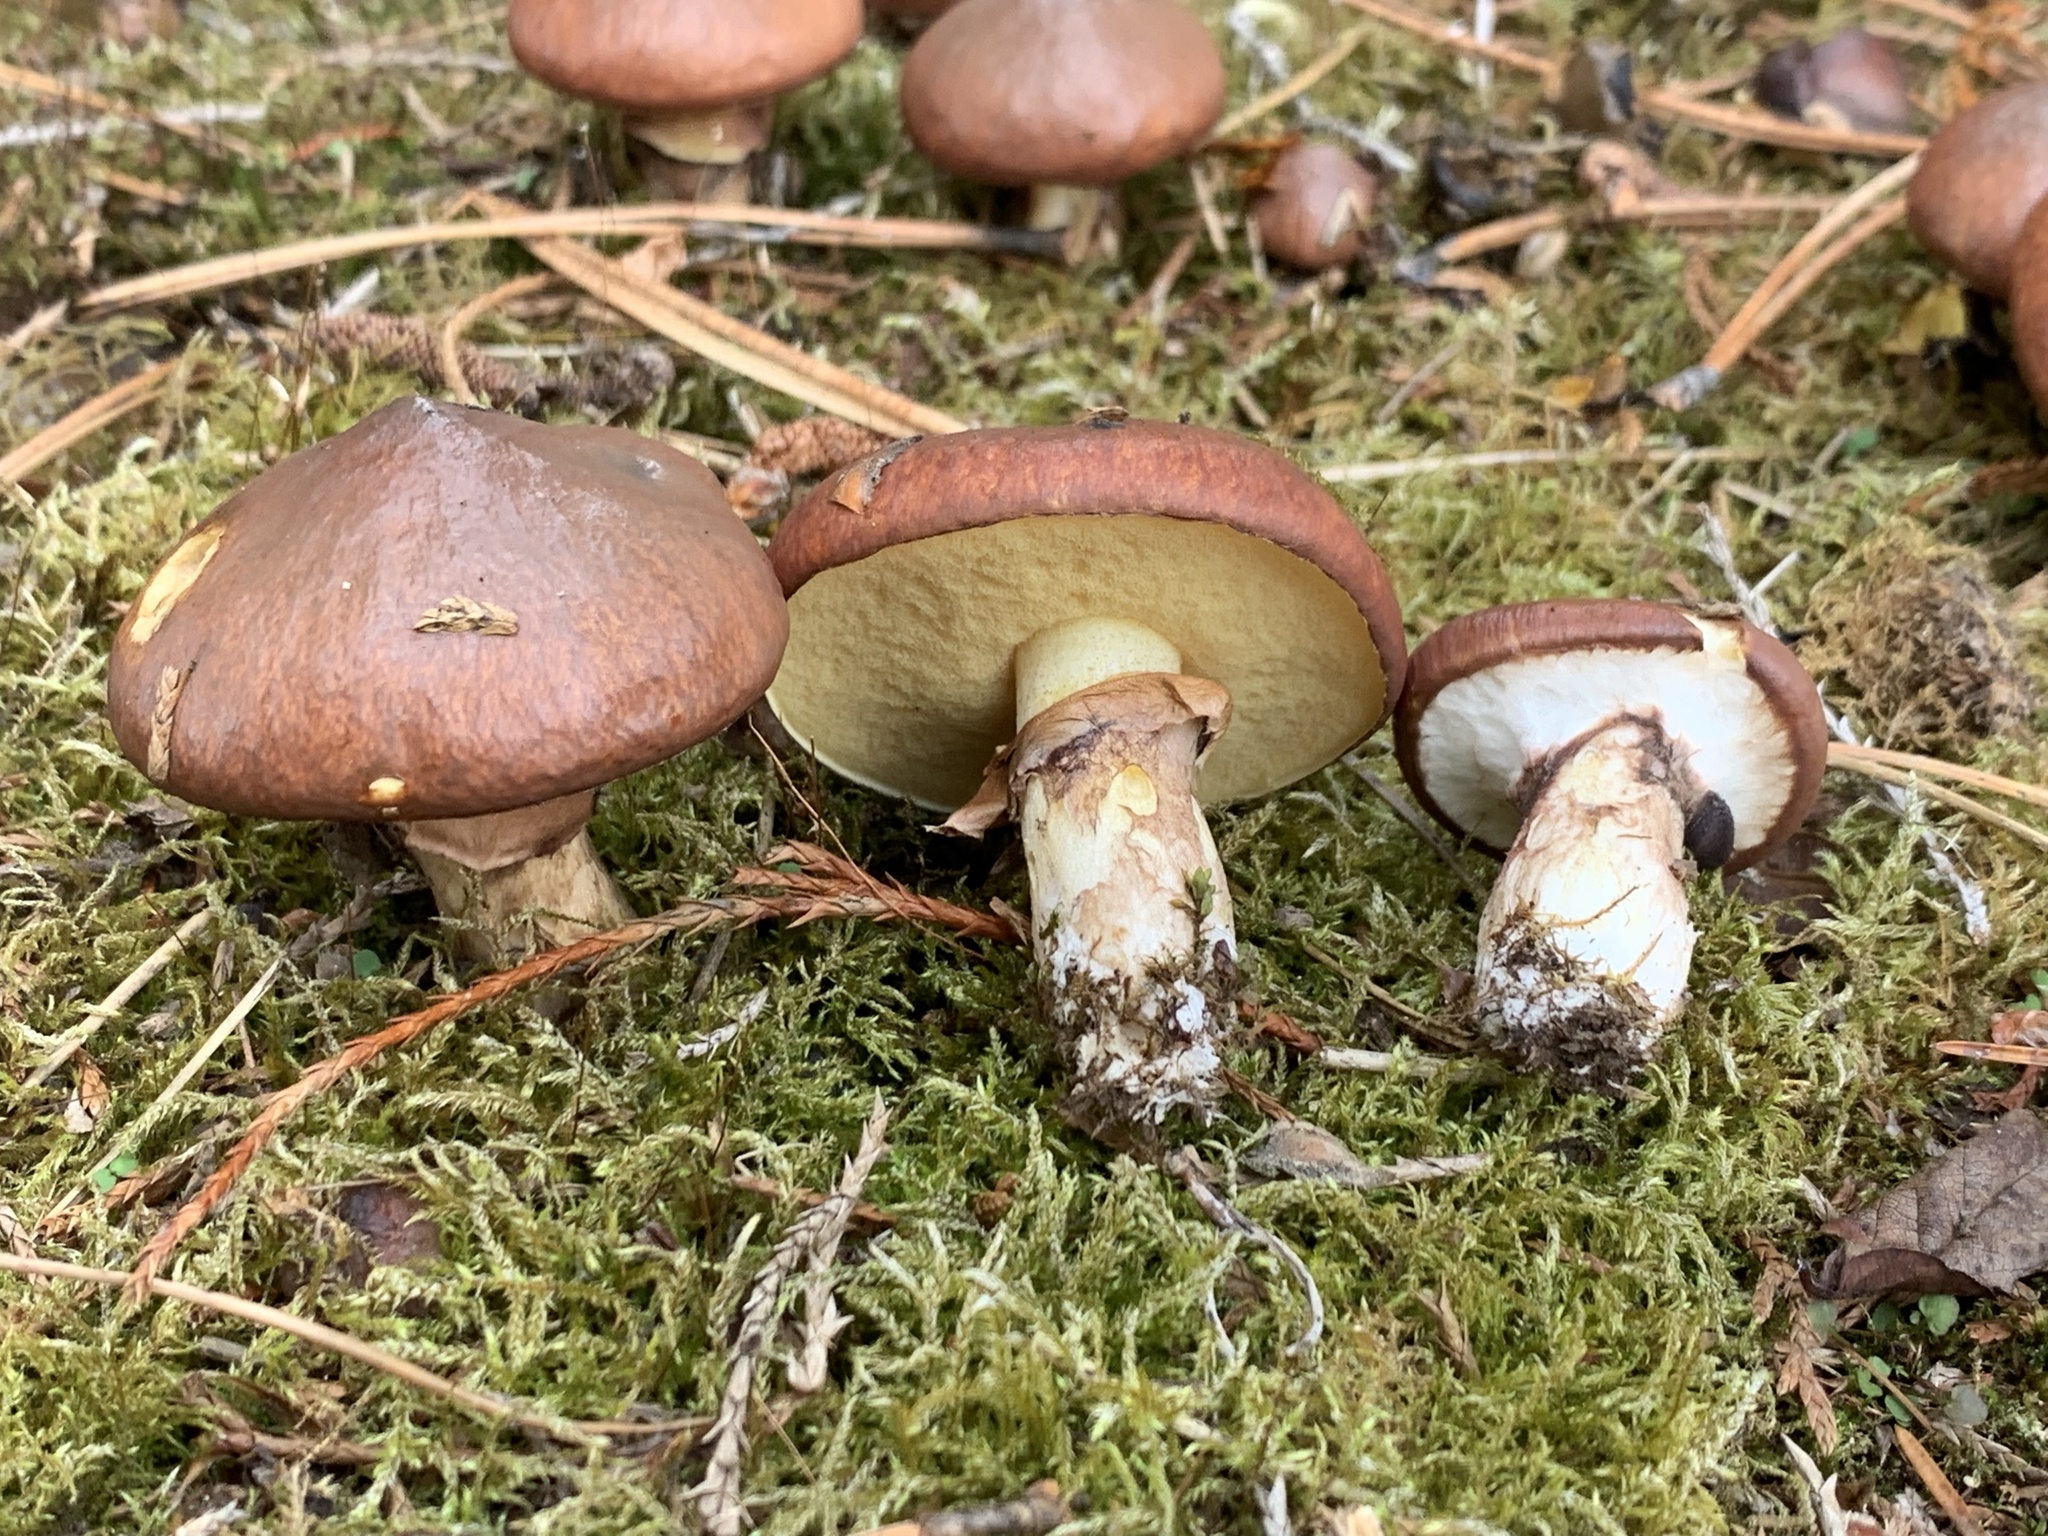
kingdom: Fungi
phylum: Basidiomycota
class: Agaricomycetes
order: Boletales
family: Suillaceae
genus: Suillus
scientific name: Suillus luteus
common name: Slippery jack
